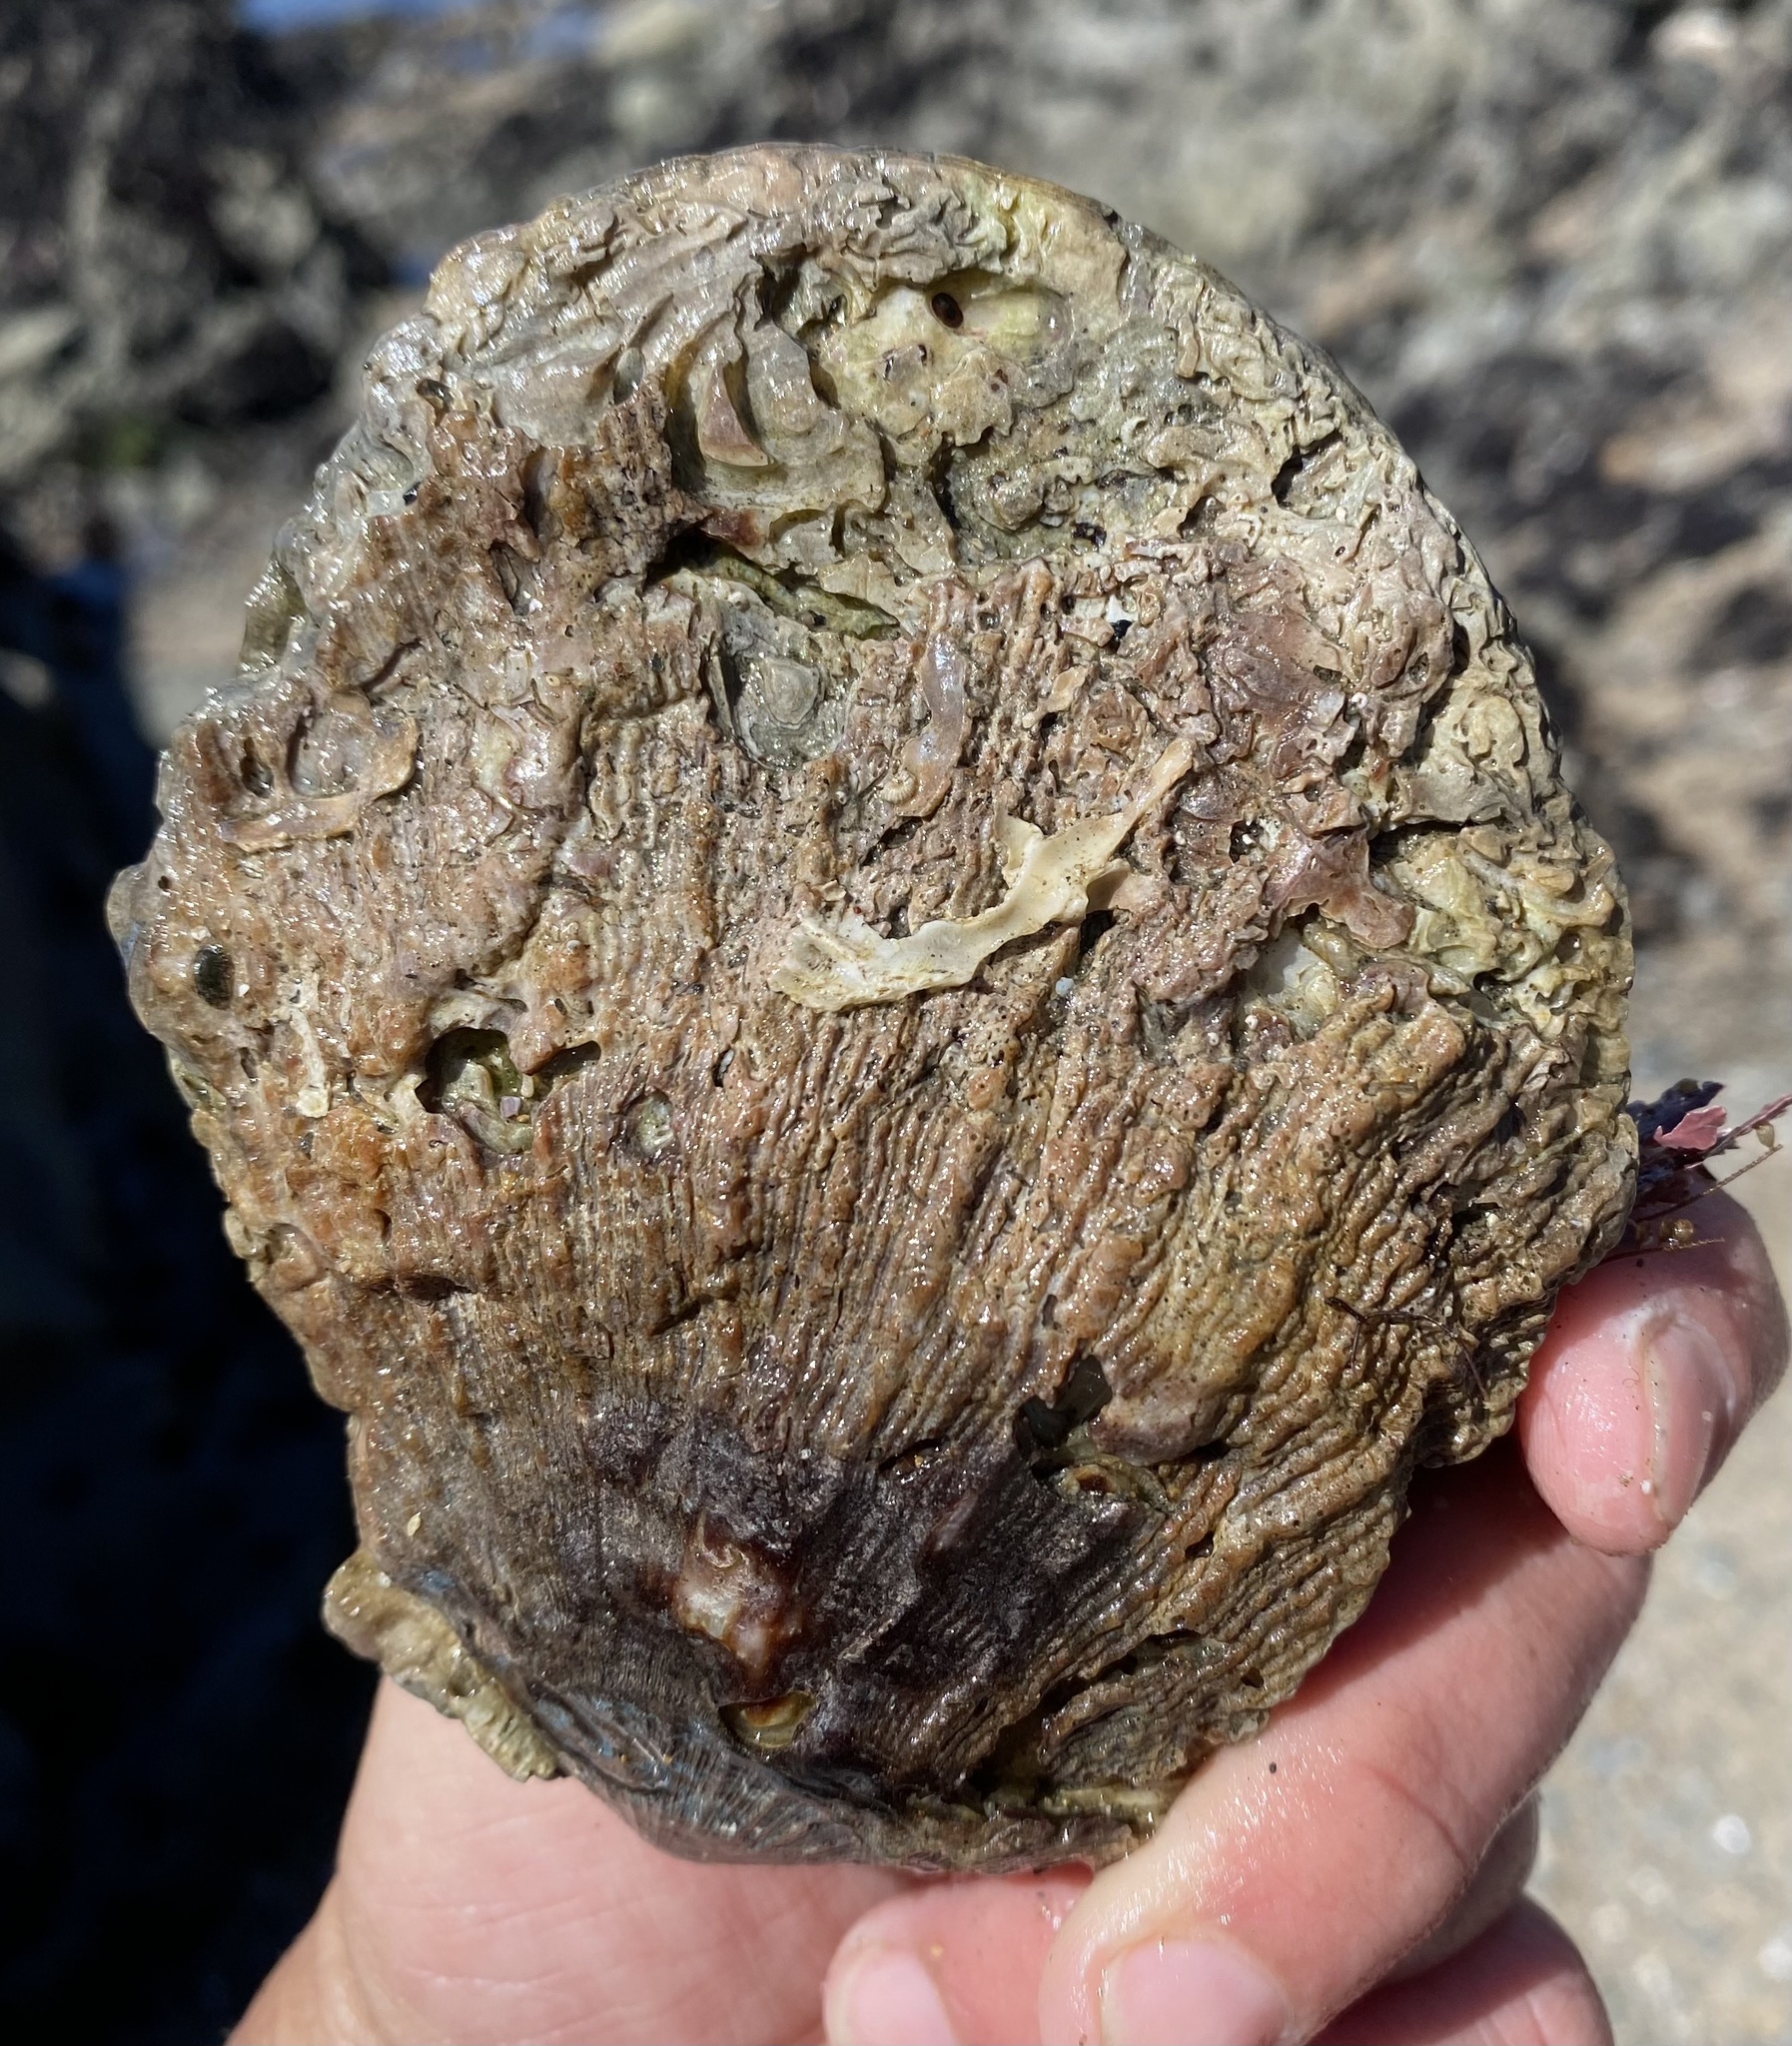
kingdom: Animalia
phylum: Mollusca
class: Bivalvia
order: Pectinida
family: Pectinidae
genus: Crassadoma
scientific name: Crassadoma gigantea
